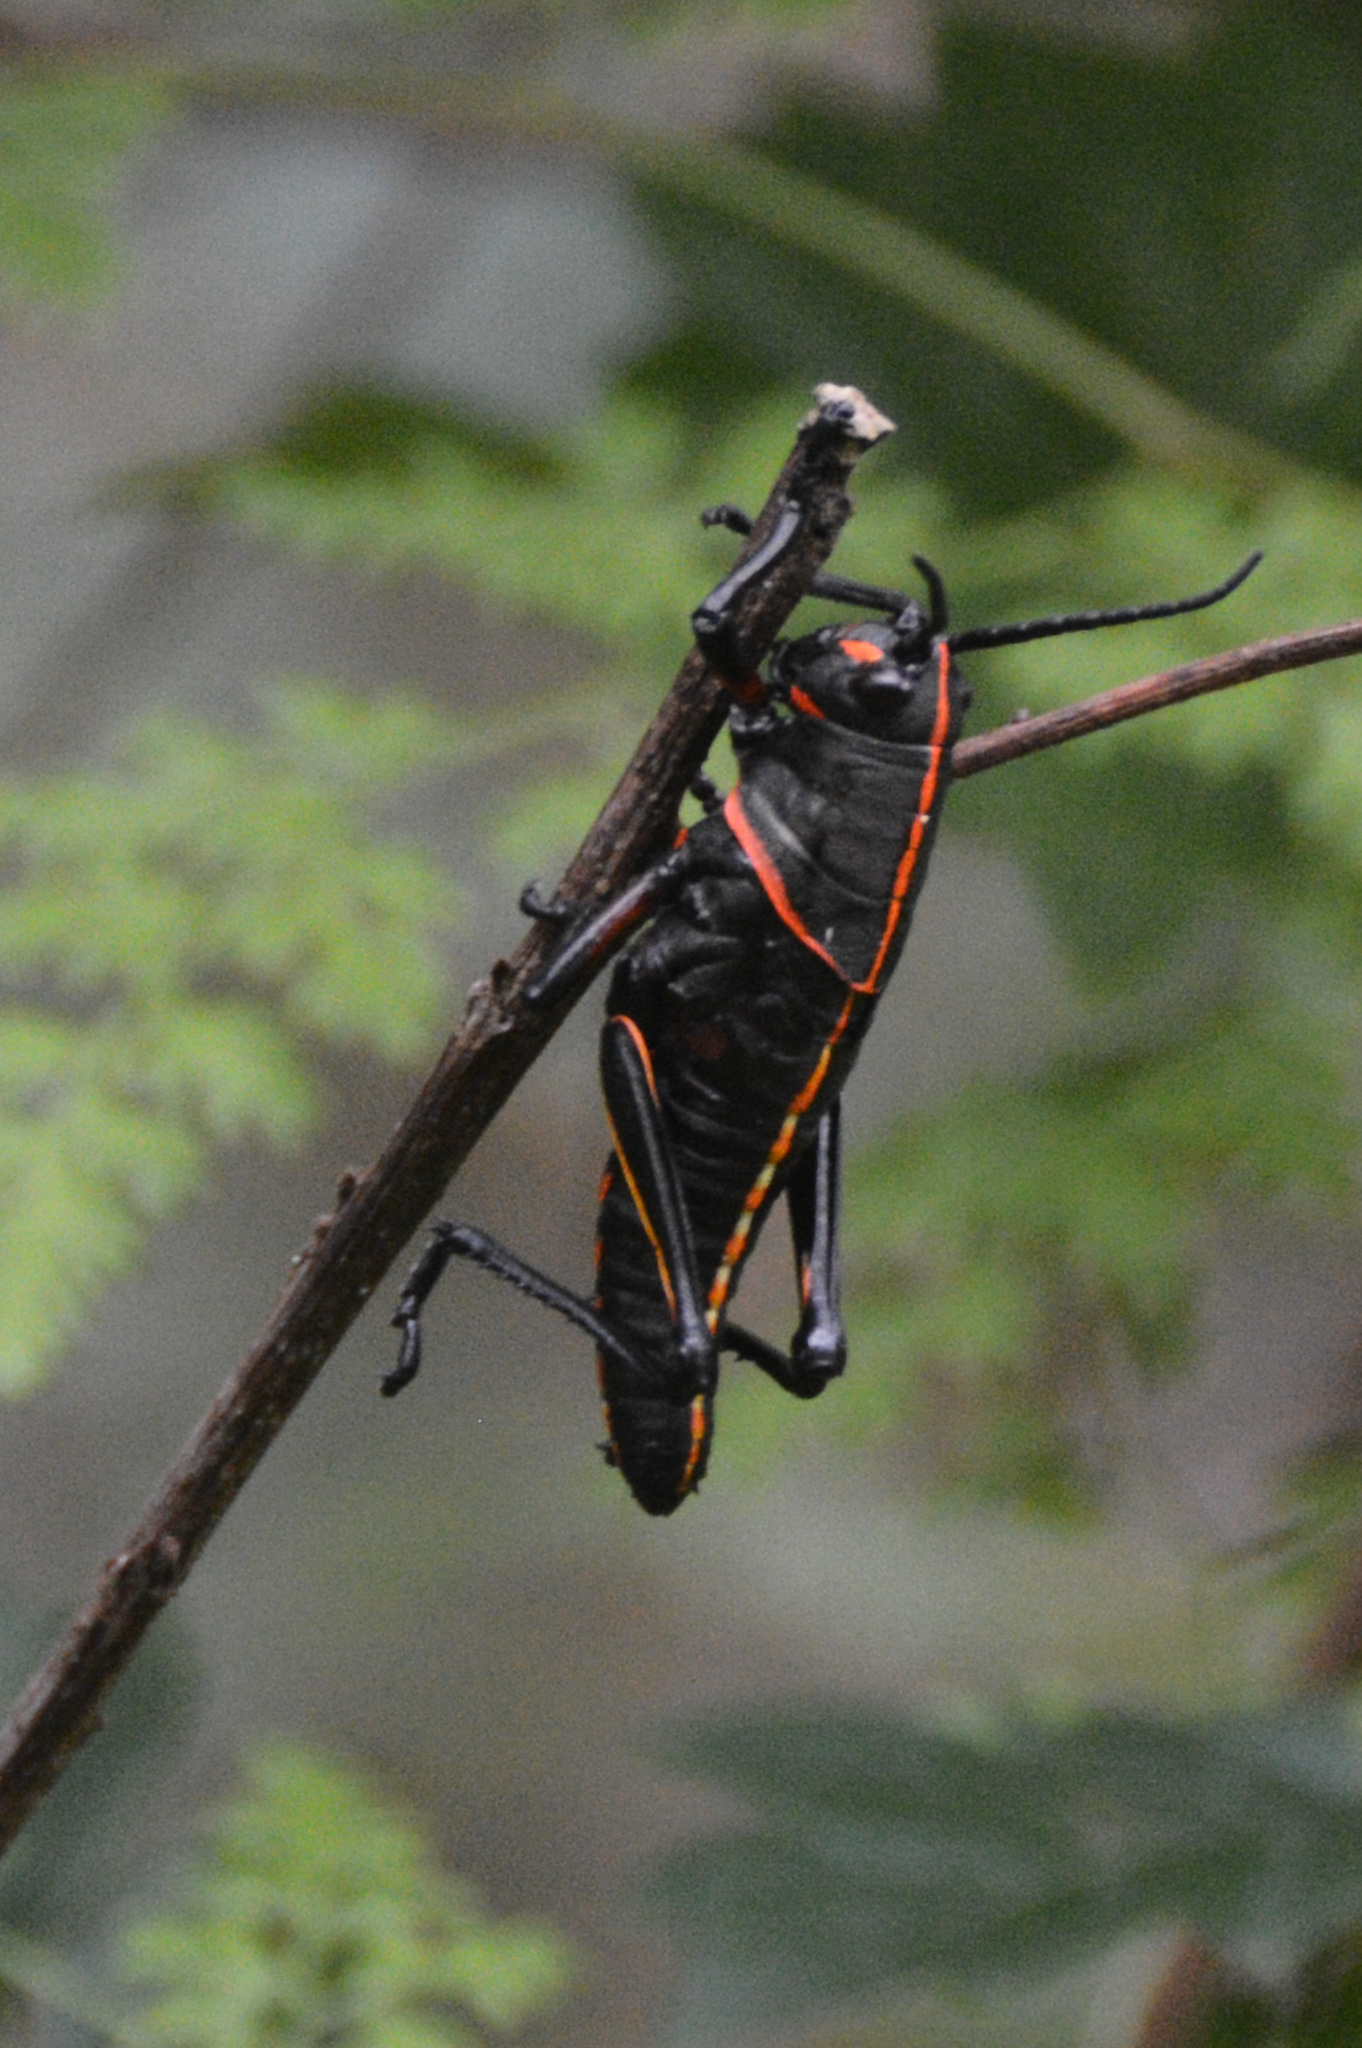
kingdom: Animalia
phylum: Arthropoda
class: Insecta
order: Orthoptera
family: Romaleidae
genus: Romalea
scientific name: Romalea microptera
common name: Eastern lubber grasshopper
